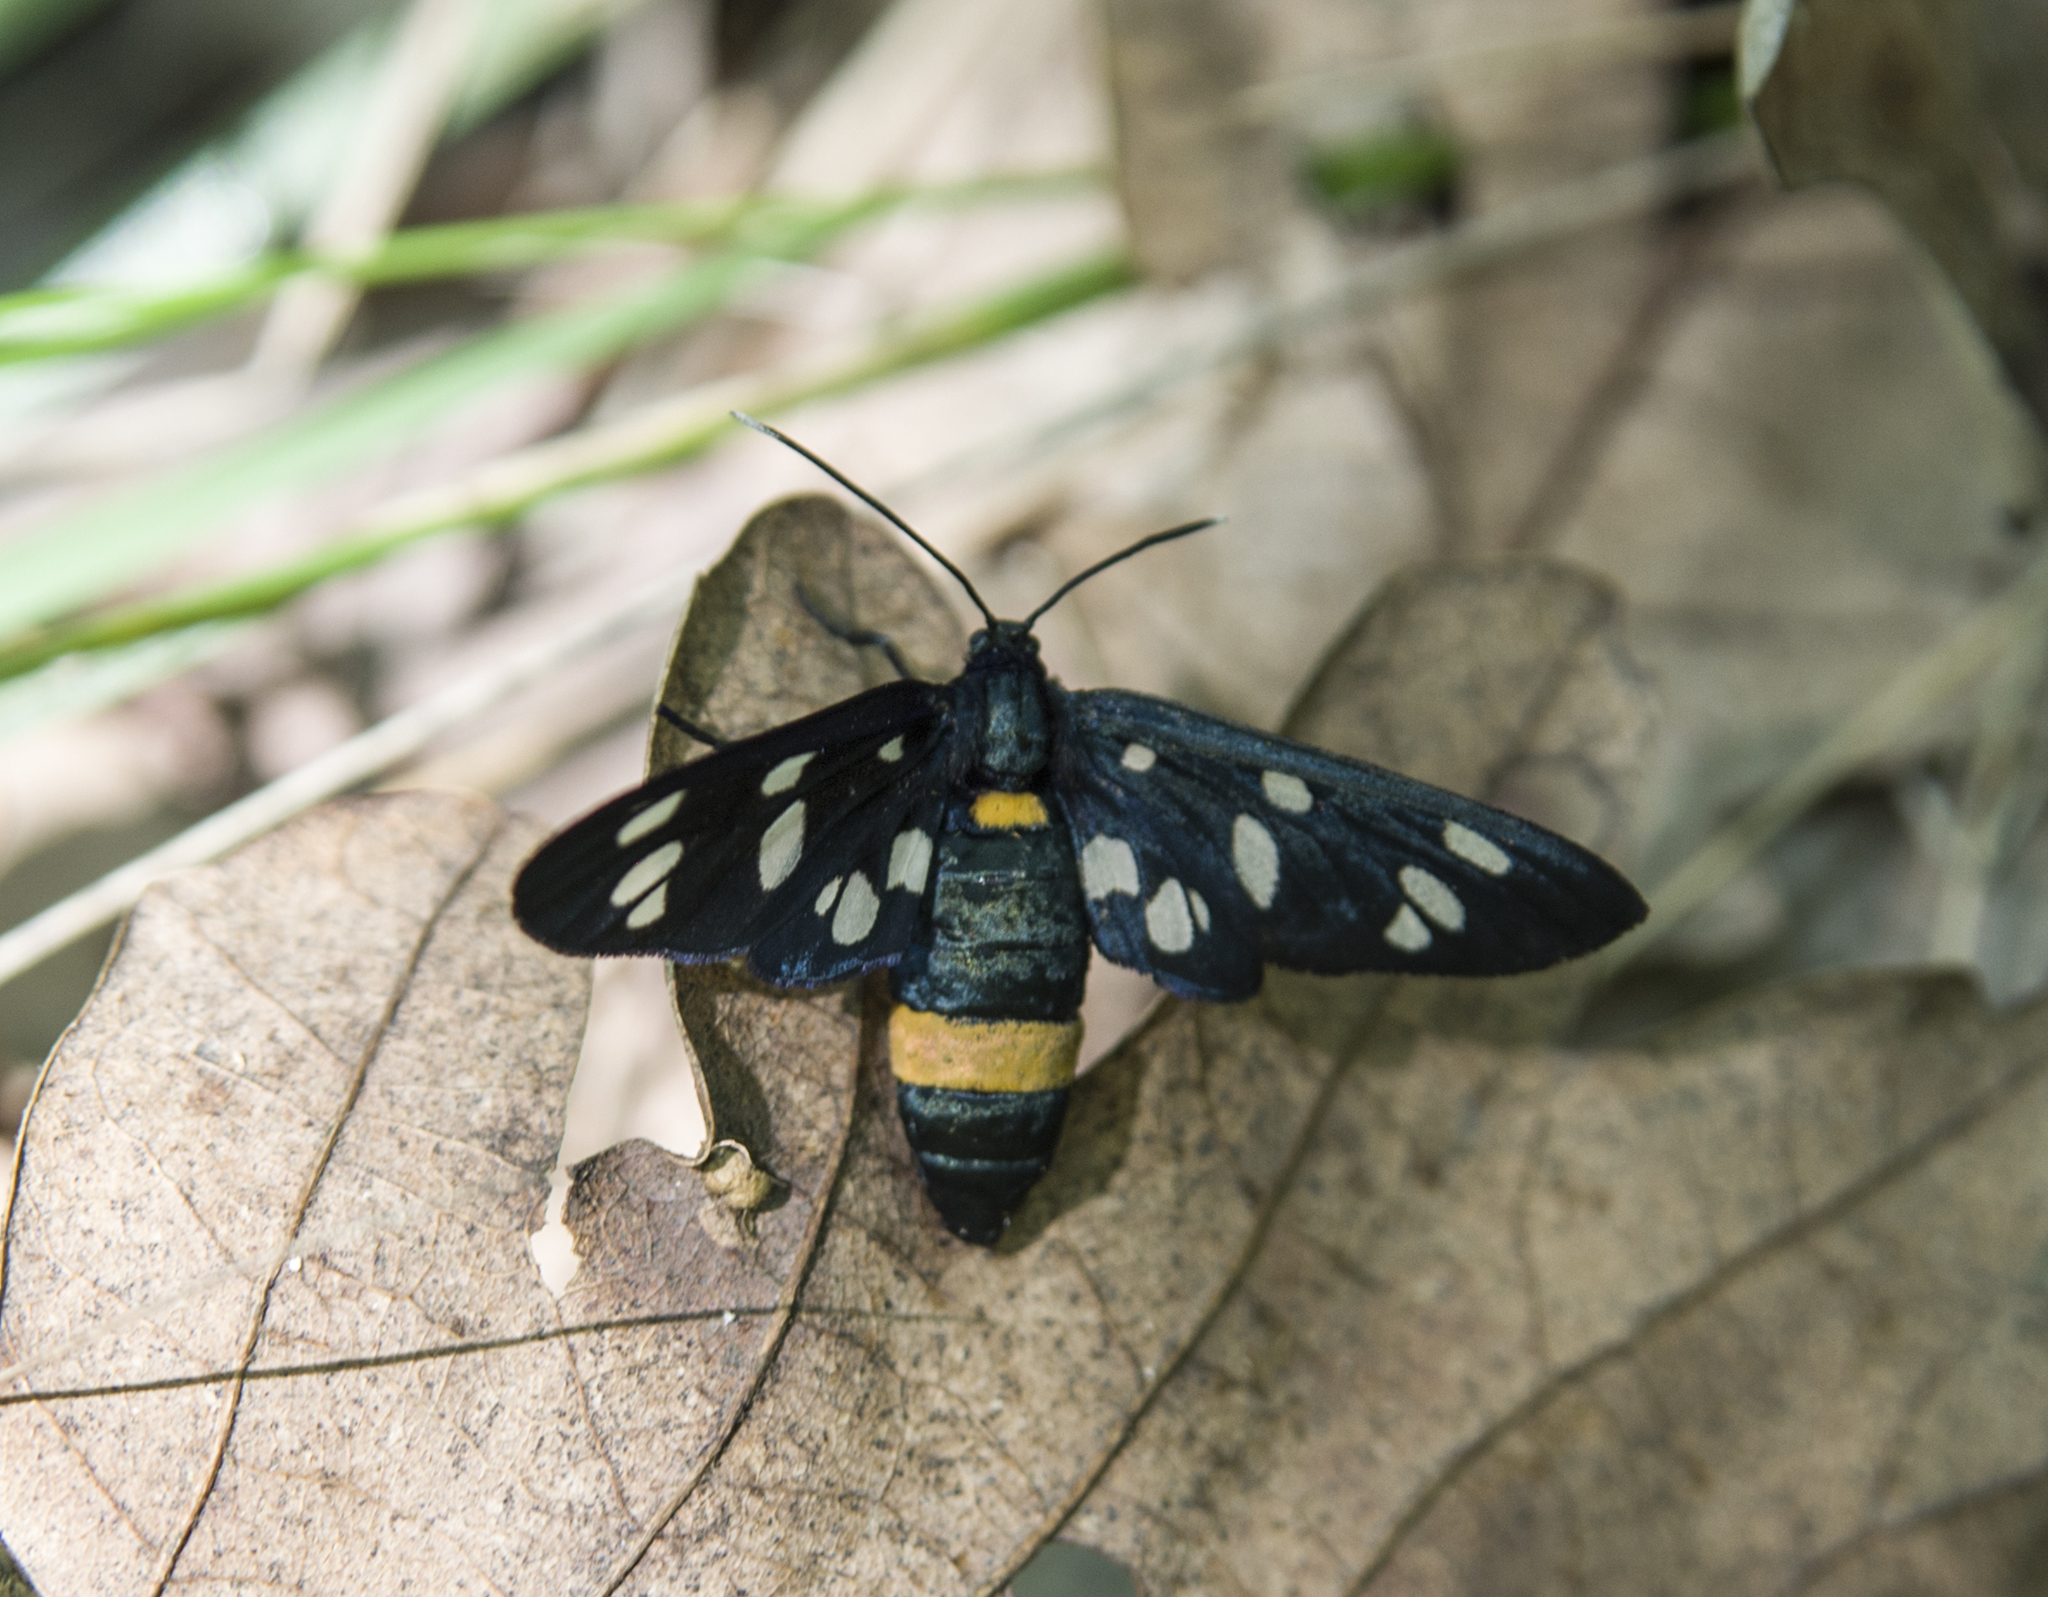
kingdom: Animalia
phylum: Arthropoda
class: Insecta
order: Lepidoptera
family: Erebidae
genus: Amata
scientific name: Amata phegea
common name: Nine-spotted
